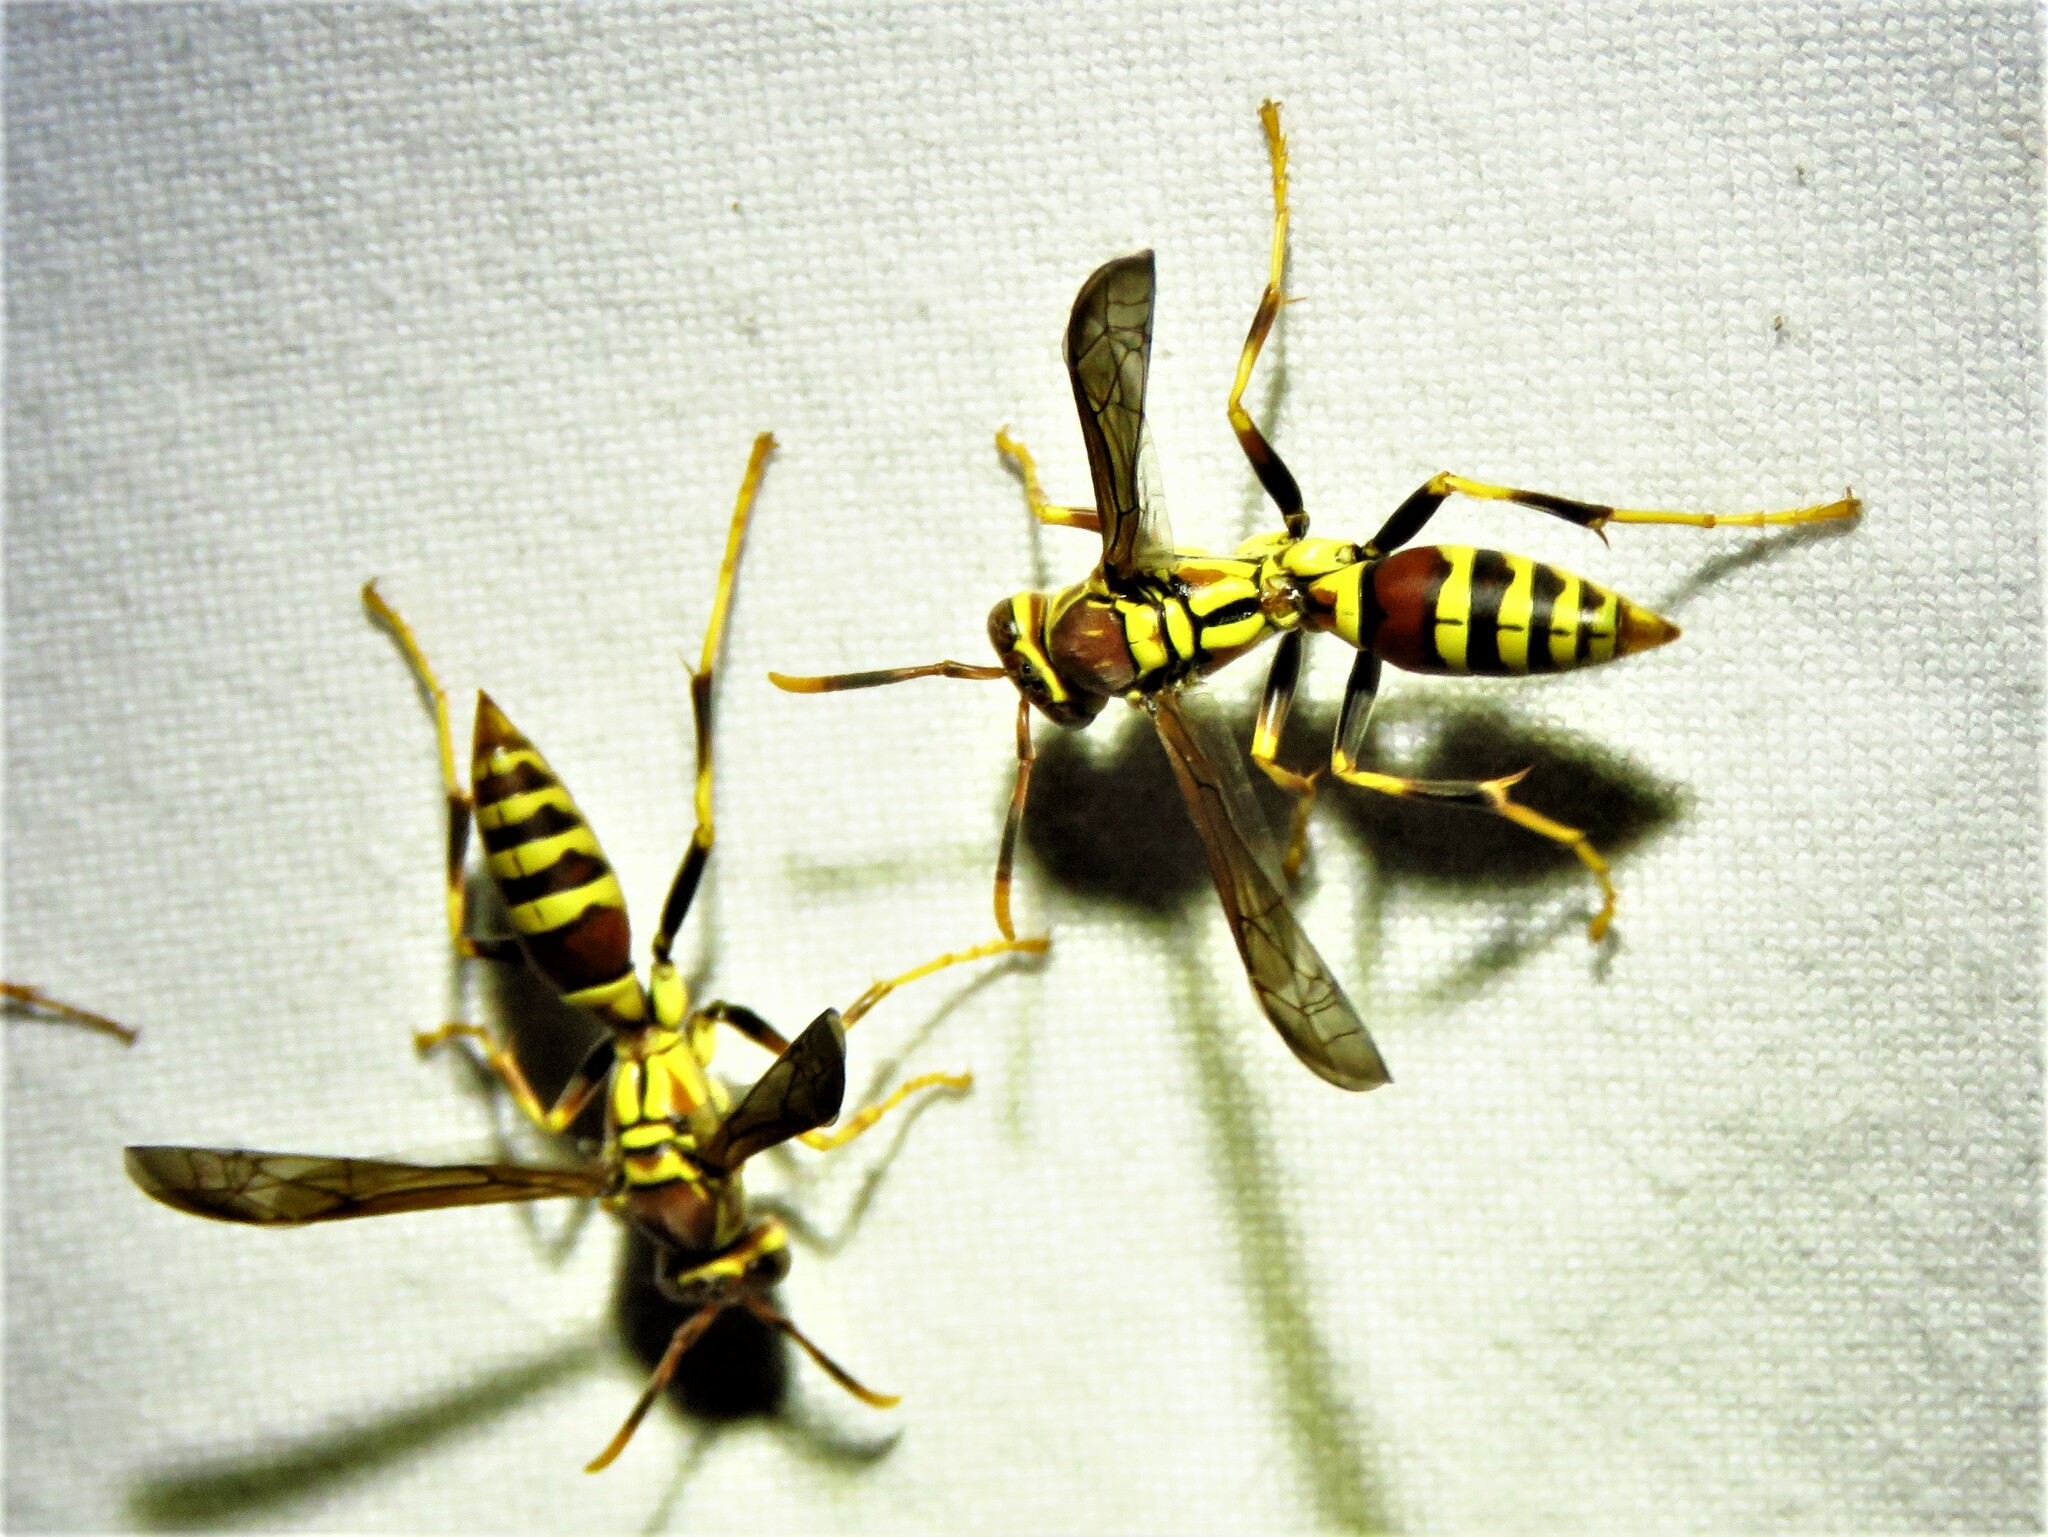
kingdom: Animalia
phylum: Arthropoda
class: Insecta
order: Hymenoptera
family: Eumenidae
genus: Polistes
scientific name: Polistes exclamans
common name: Paper wasp
